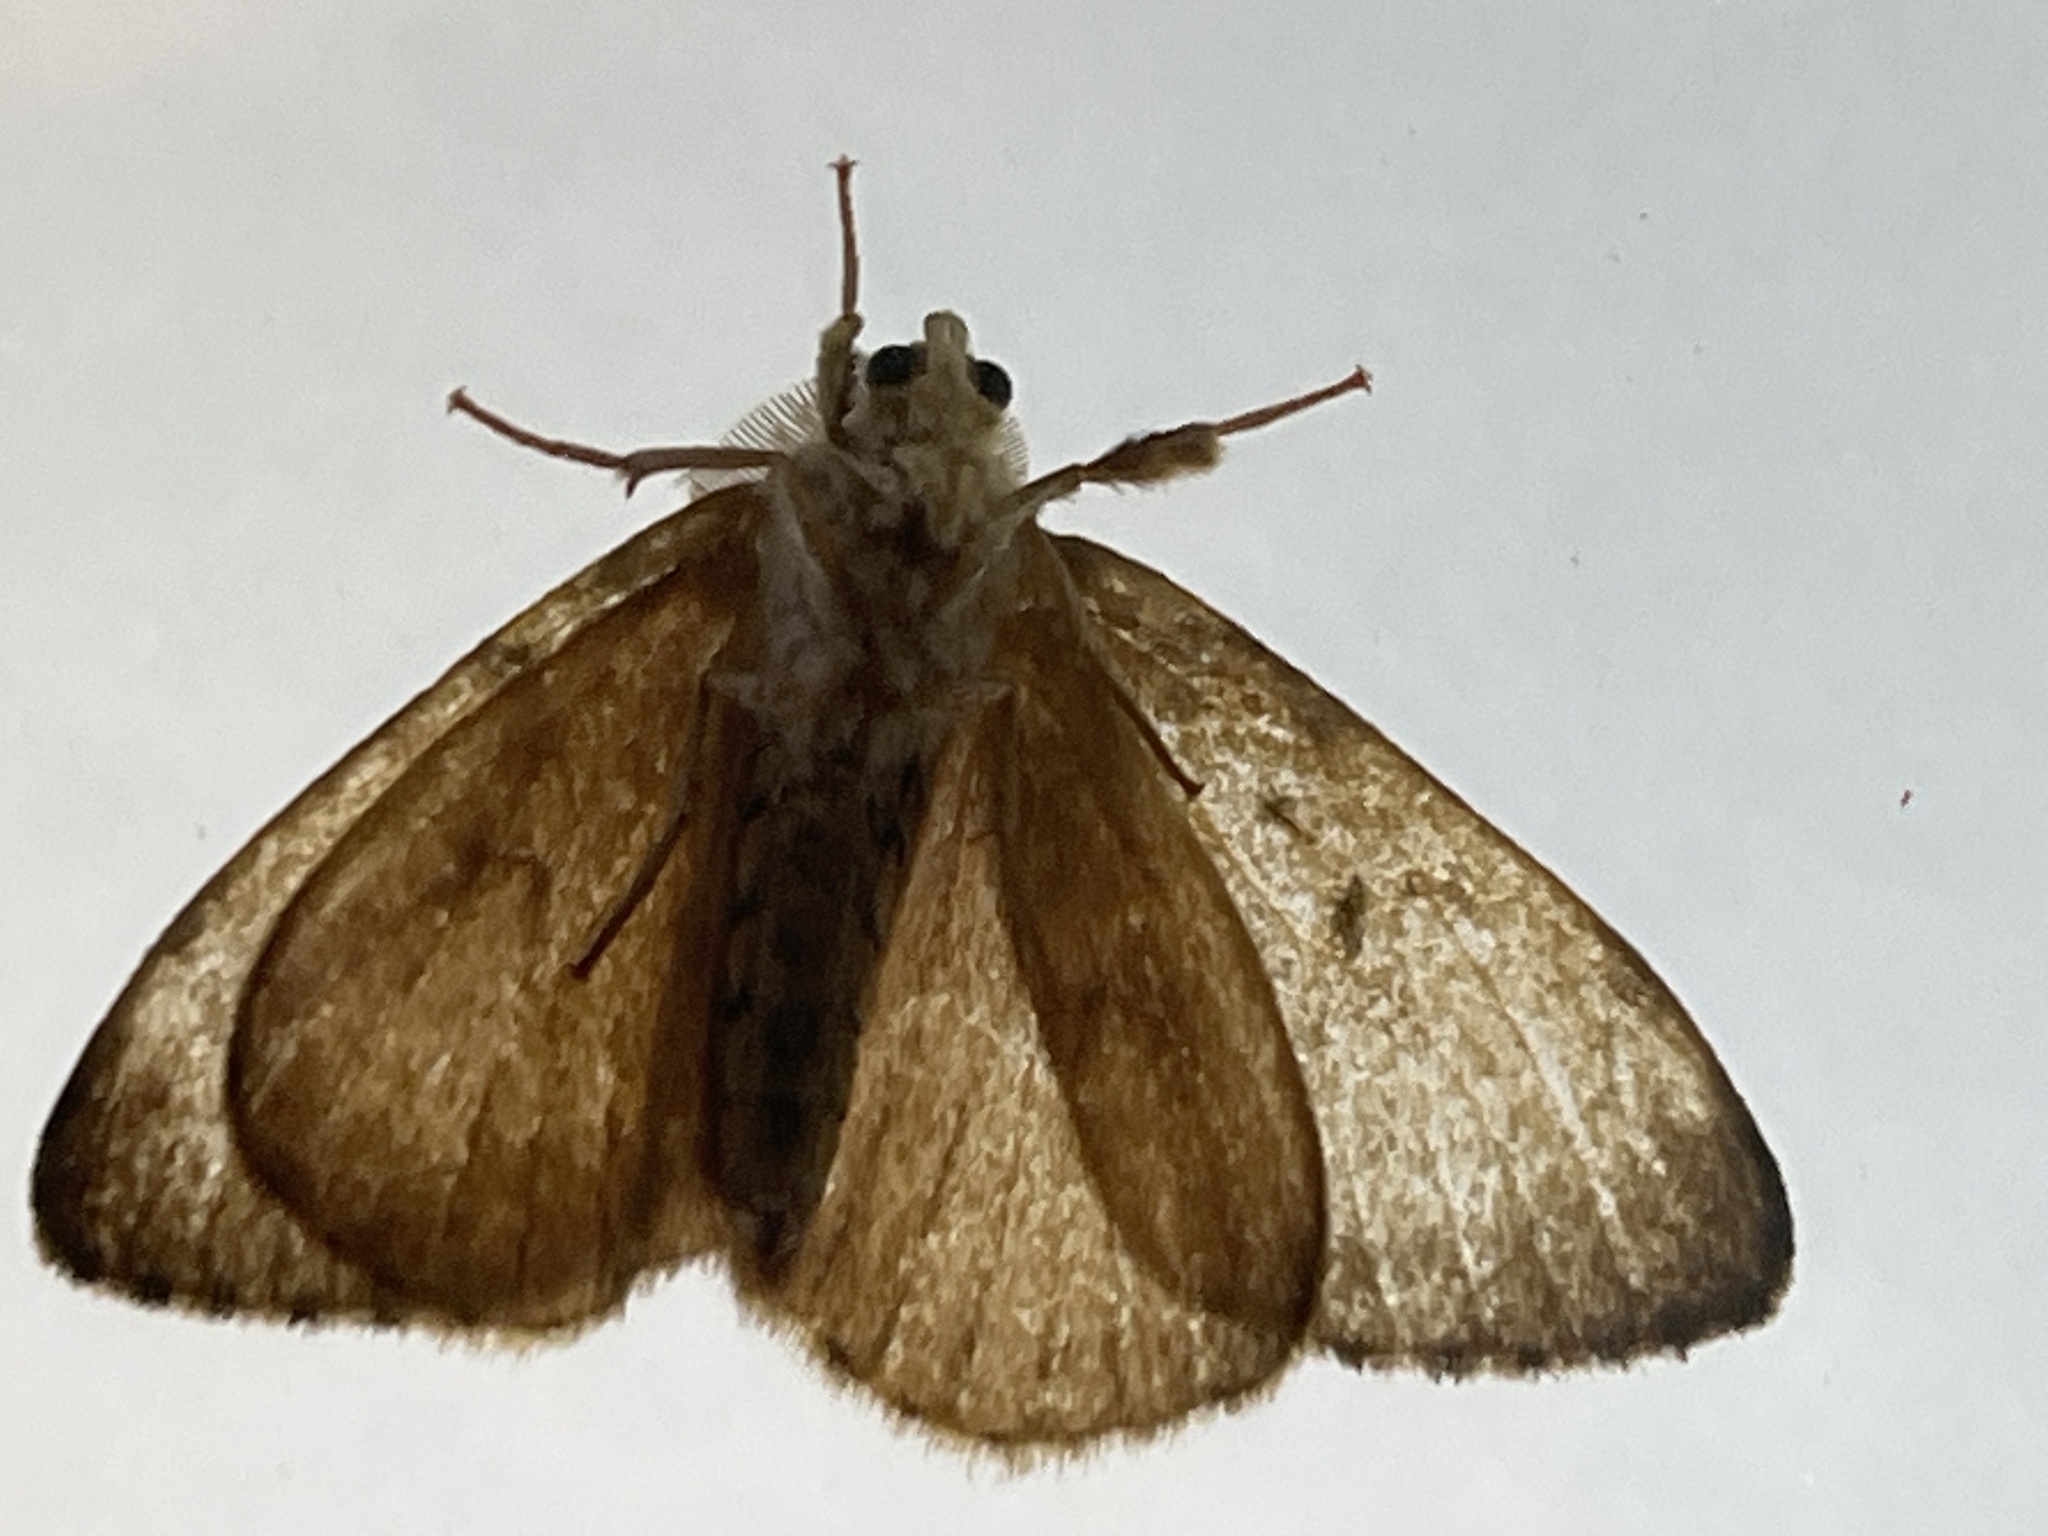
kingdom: Animalia
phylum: Arthropoda
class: Insecta
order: Lepidoptera
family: Erebidae
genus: Lymantria
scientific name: Lymantria dispar
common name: Gypsy moth
